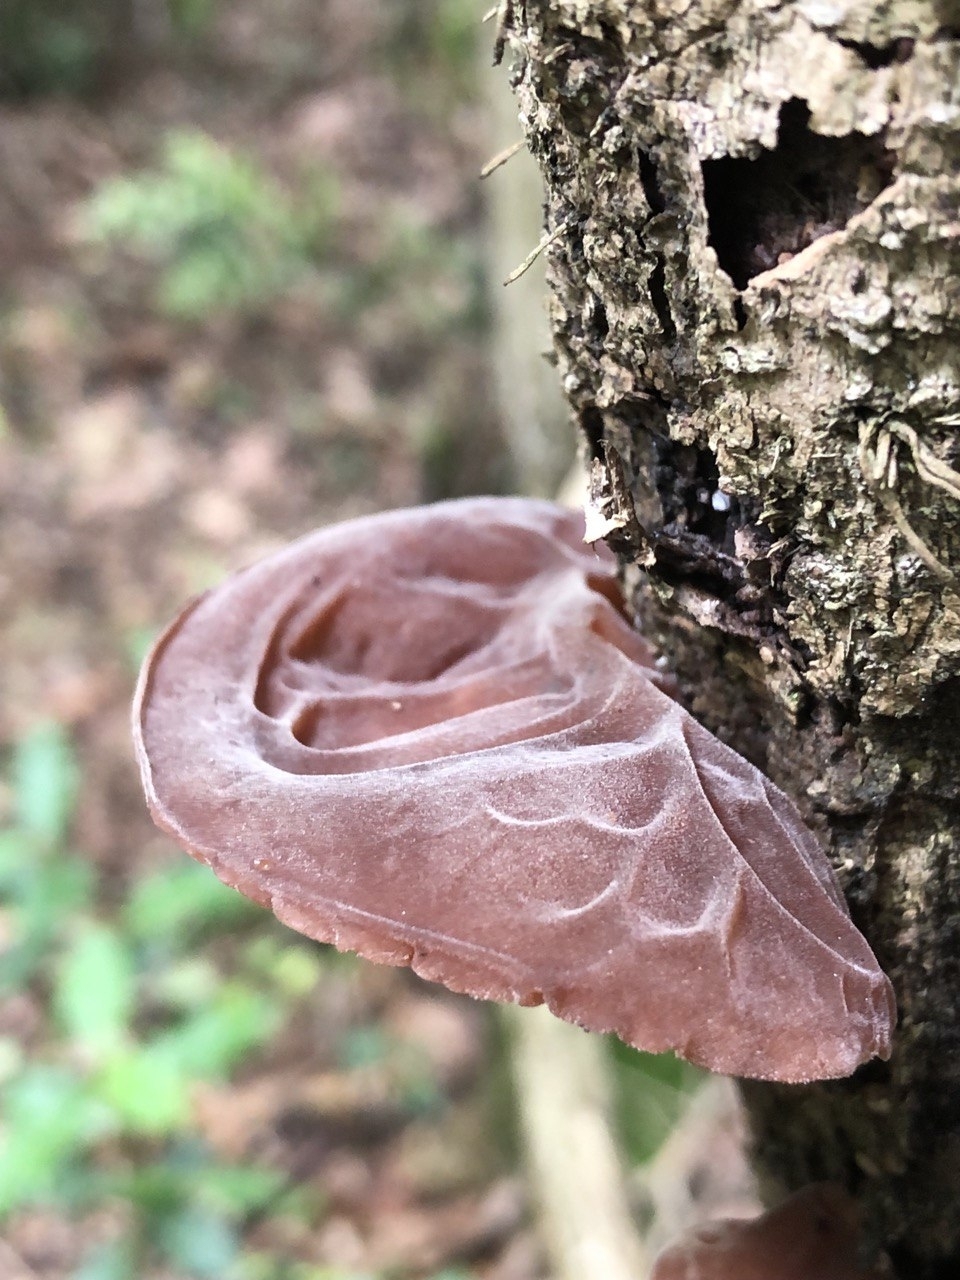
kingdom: Fungi
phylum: Basidiomycota
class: Agaricomycetes
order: Auriculariales
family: Auriculariaceae
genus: Auricularia
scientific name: Auricularia auricula-judae
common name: Jelly ear
